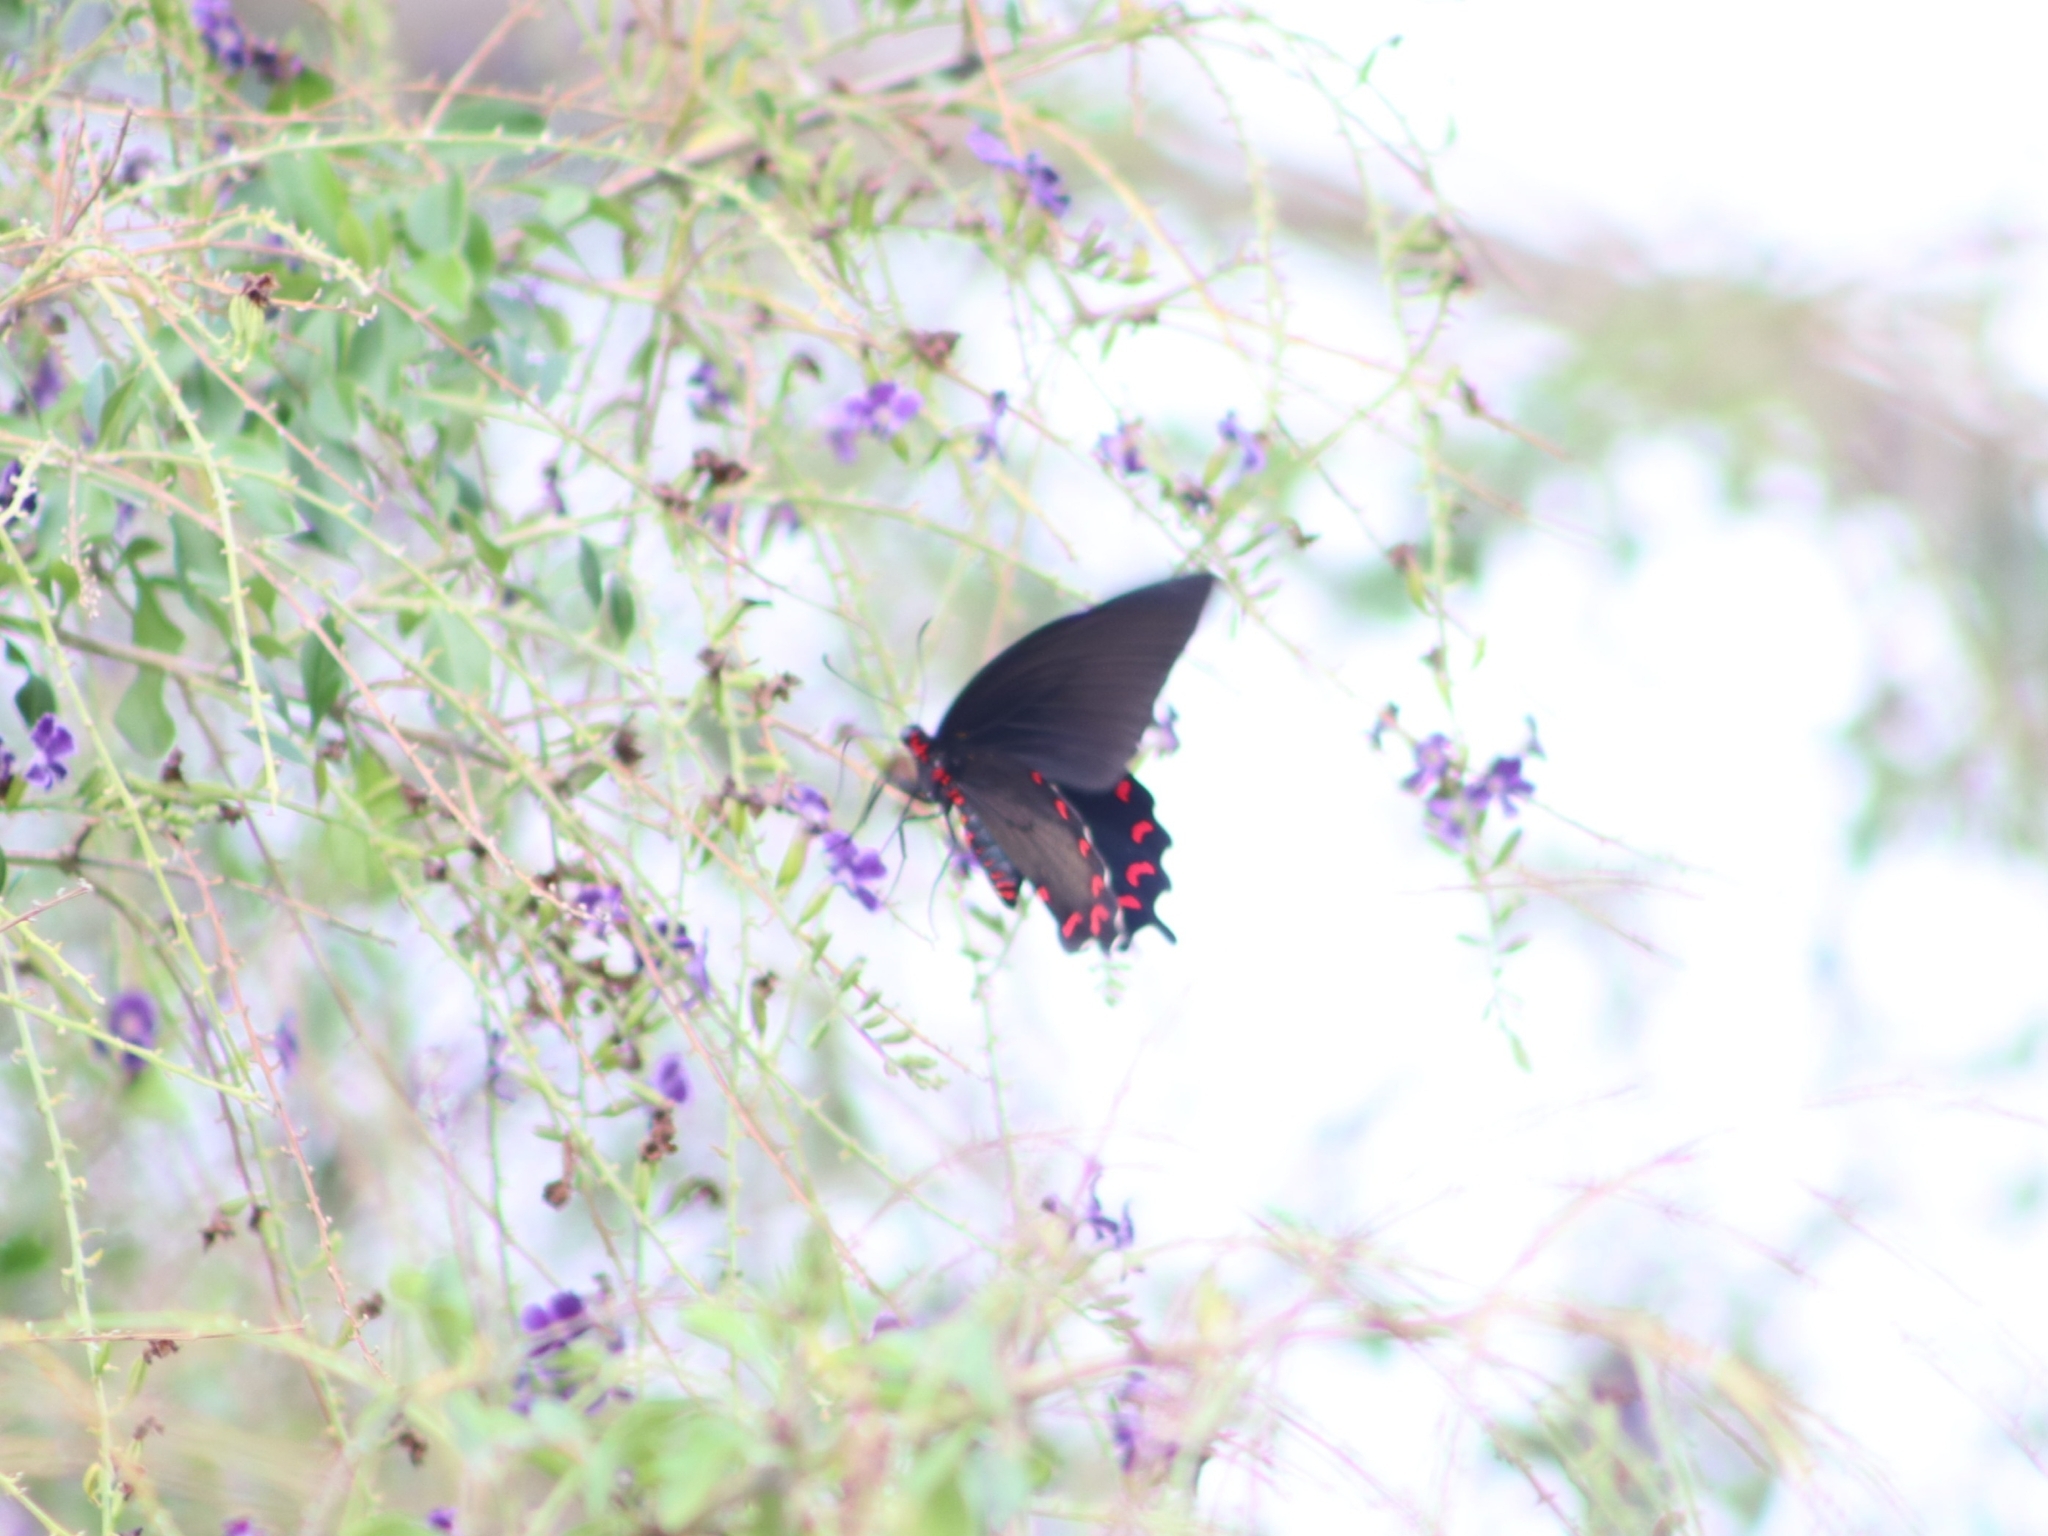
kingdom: Animalia
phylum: Arthropoda
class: Insecta
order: Lepidoptera
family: Papilionidae
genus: Parides
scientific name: Parides montezuma
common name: Montezuma's cattleheart
